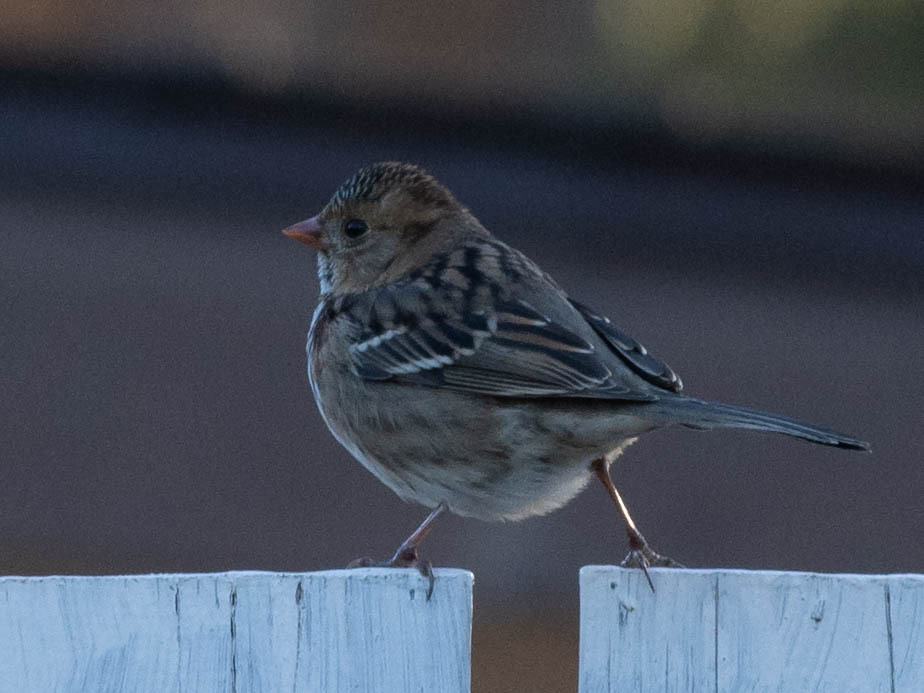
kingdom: Animalia
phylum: Chordata
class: Aves
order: Passeriformes
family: Passerellidae
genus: Zonotrichia
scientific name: Zonotrichia querula
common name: Harris's sparrow
